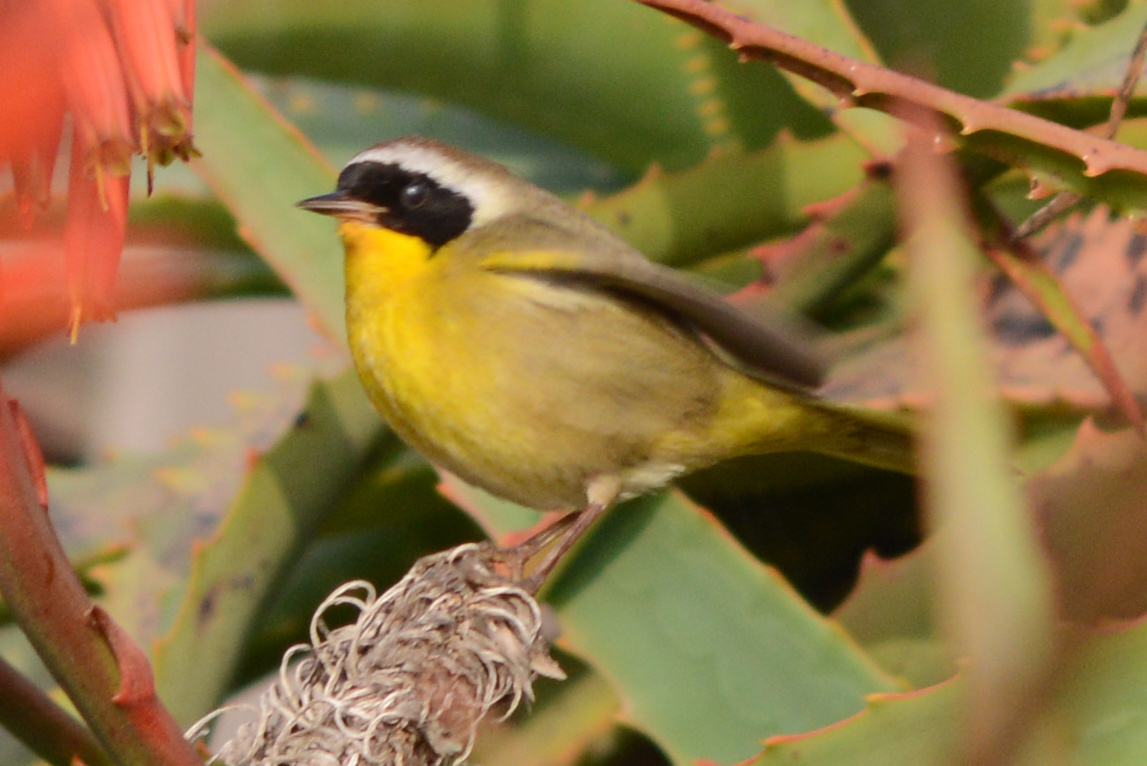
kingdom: Animalia
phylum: Chordata
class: Aves
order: Passeriformes
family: Parulidae
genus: Geothlypis
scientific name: Geothlypis trichas
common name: Common yellowthroat
